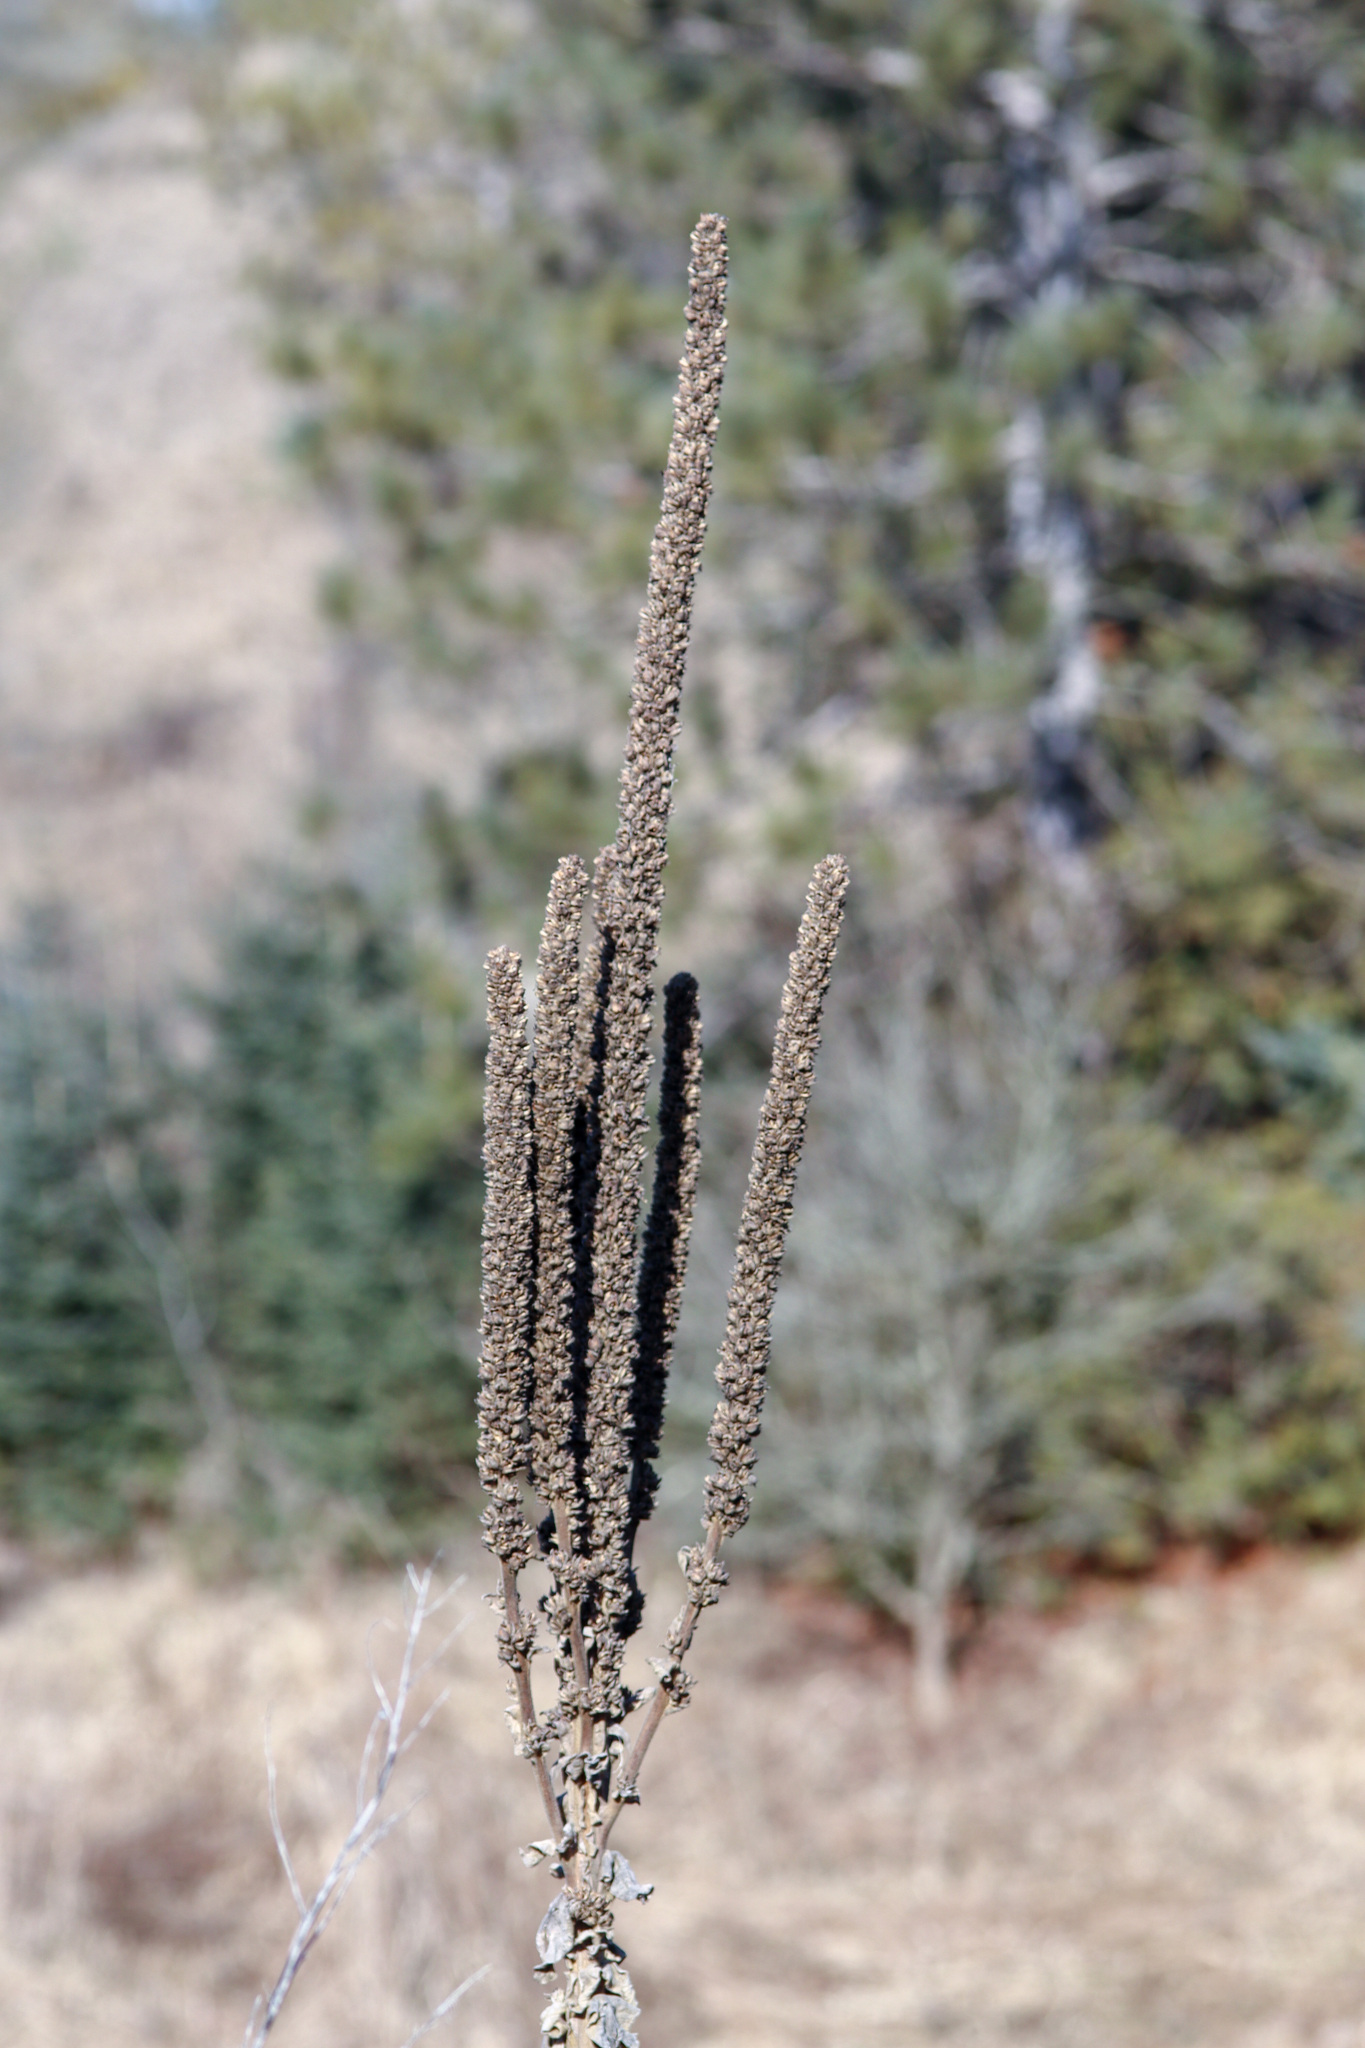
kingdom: Plantae
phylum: Tracheophyta
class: Magnoliopsida
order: Lamiales
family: Scrophulariaceae
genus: Verbascum
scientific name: Verbascum thapsus
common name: Common mullein
